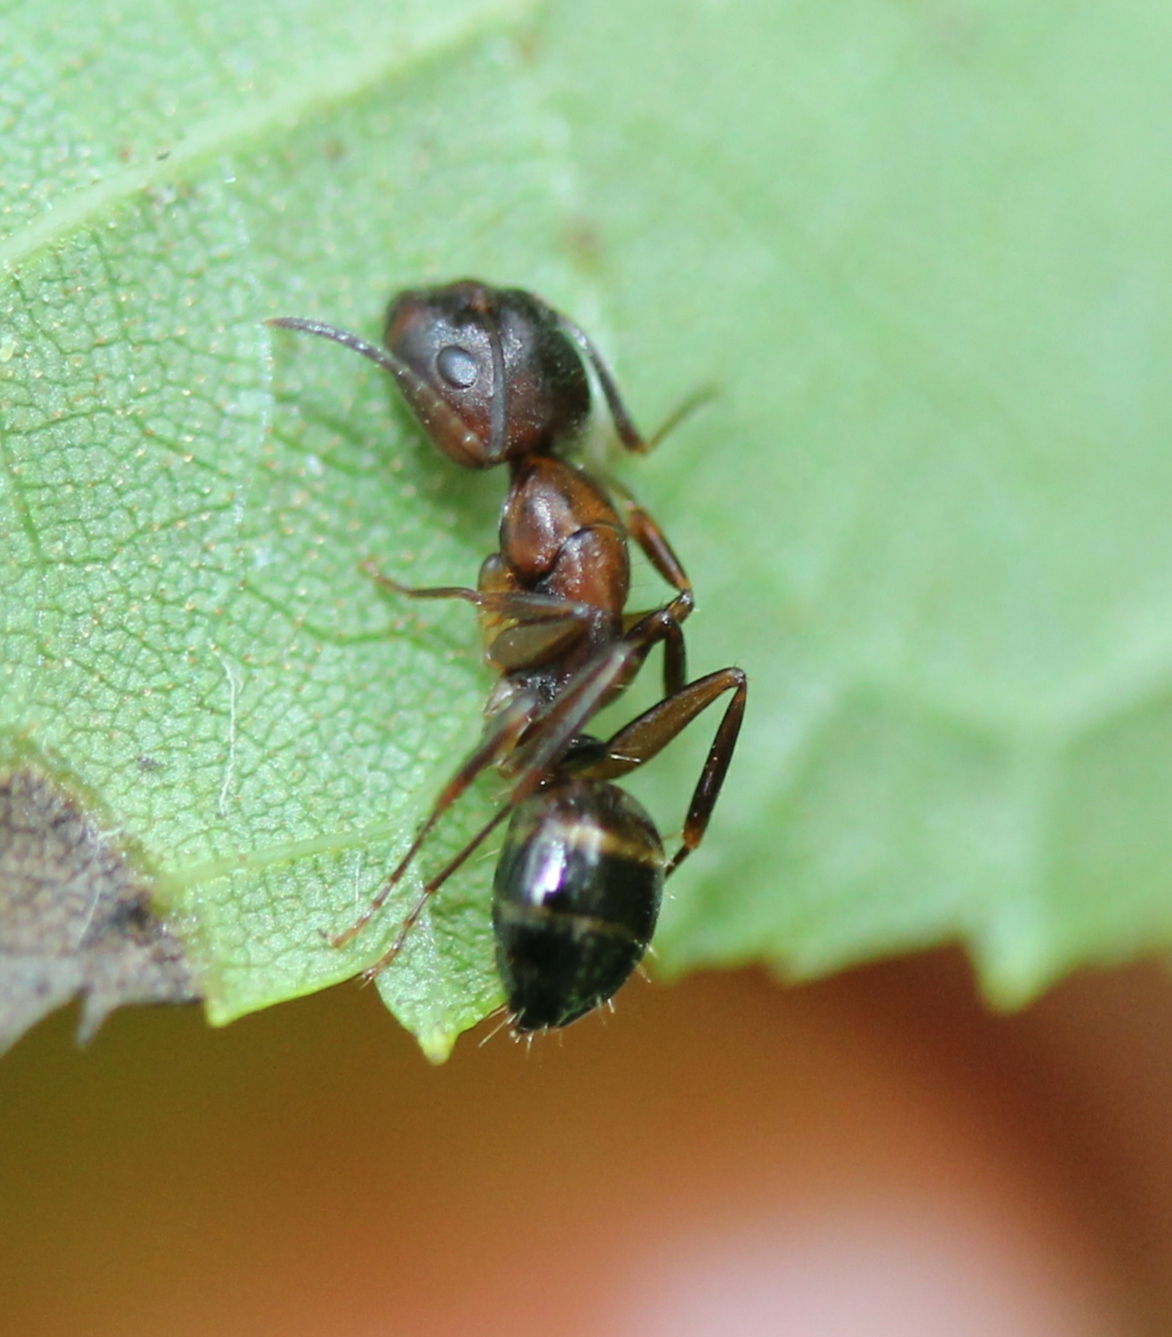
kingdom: Animalia
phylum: Arthropoda
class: Insecta
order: Hymenoptera
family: Formicidae
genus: Camponotus
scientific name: Camponotus subbarbatus
